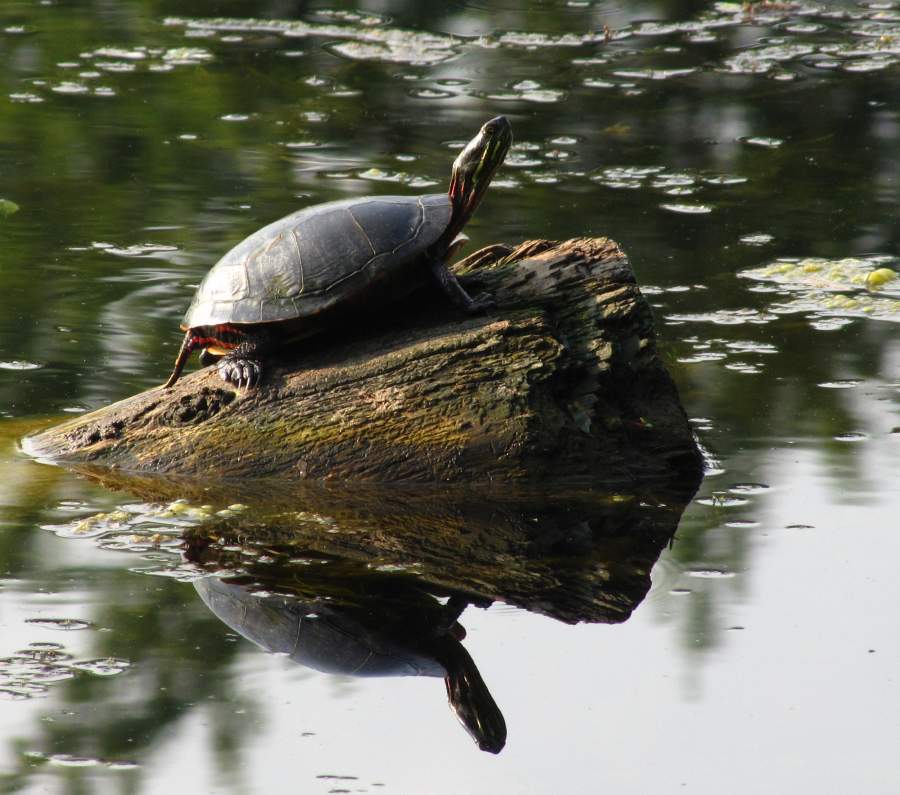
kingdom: Animalia
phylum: Chordata
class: Testudines
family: Emydidae
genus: Chrysemys
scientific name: Chrysemys picta
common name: Painted turtle
